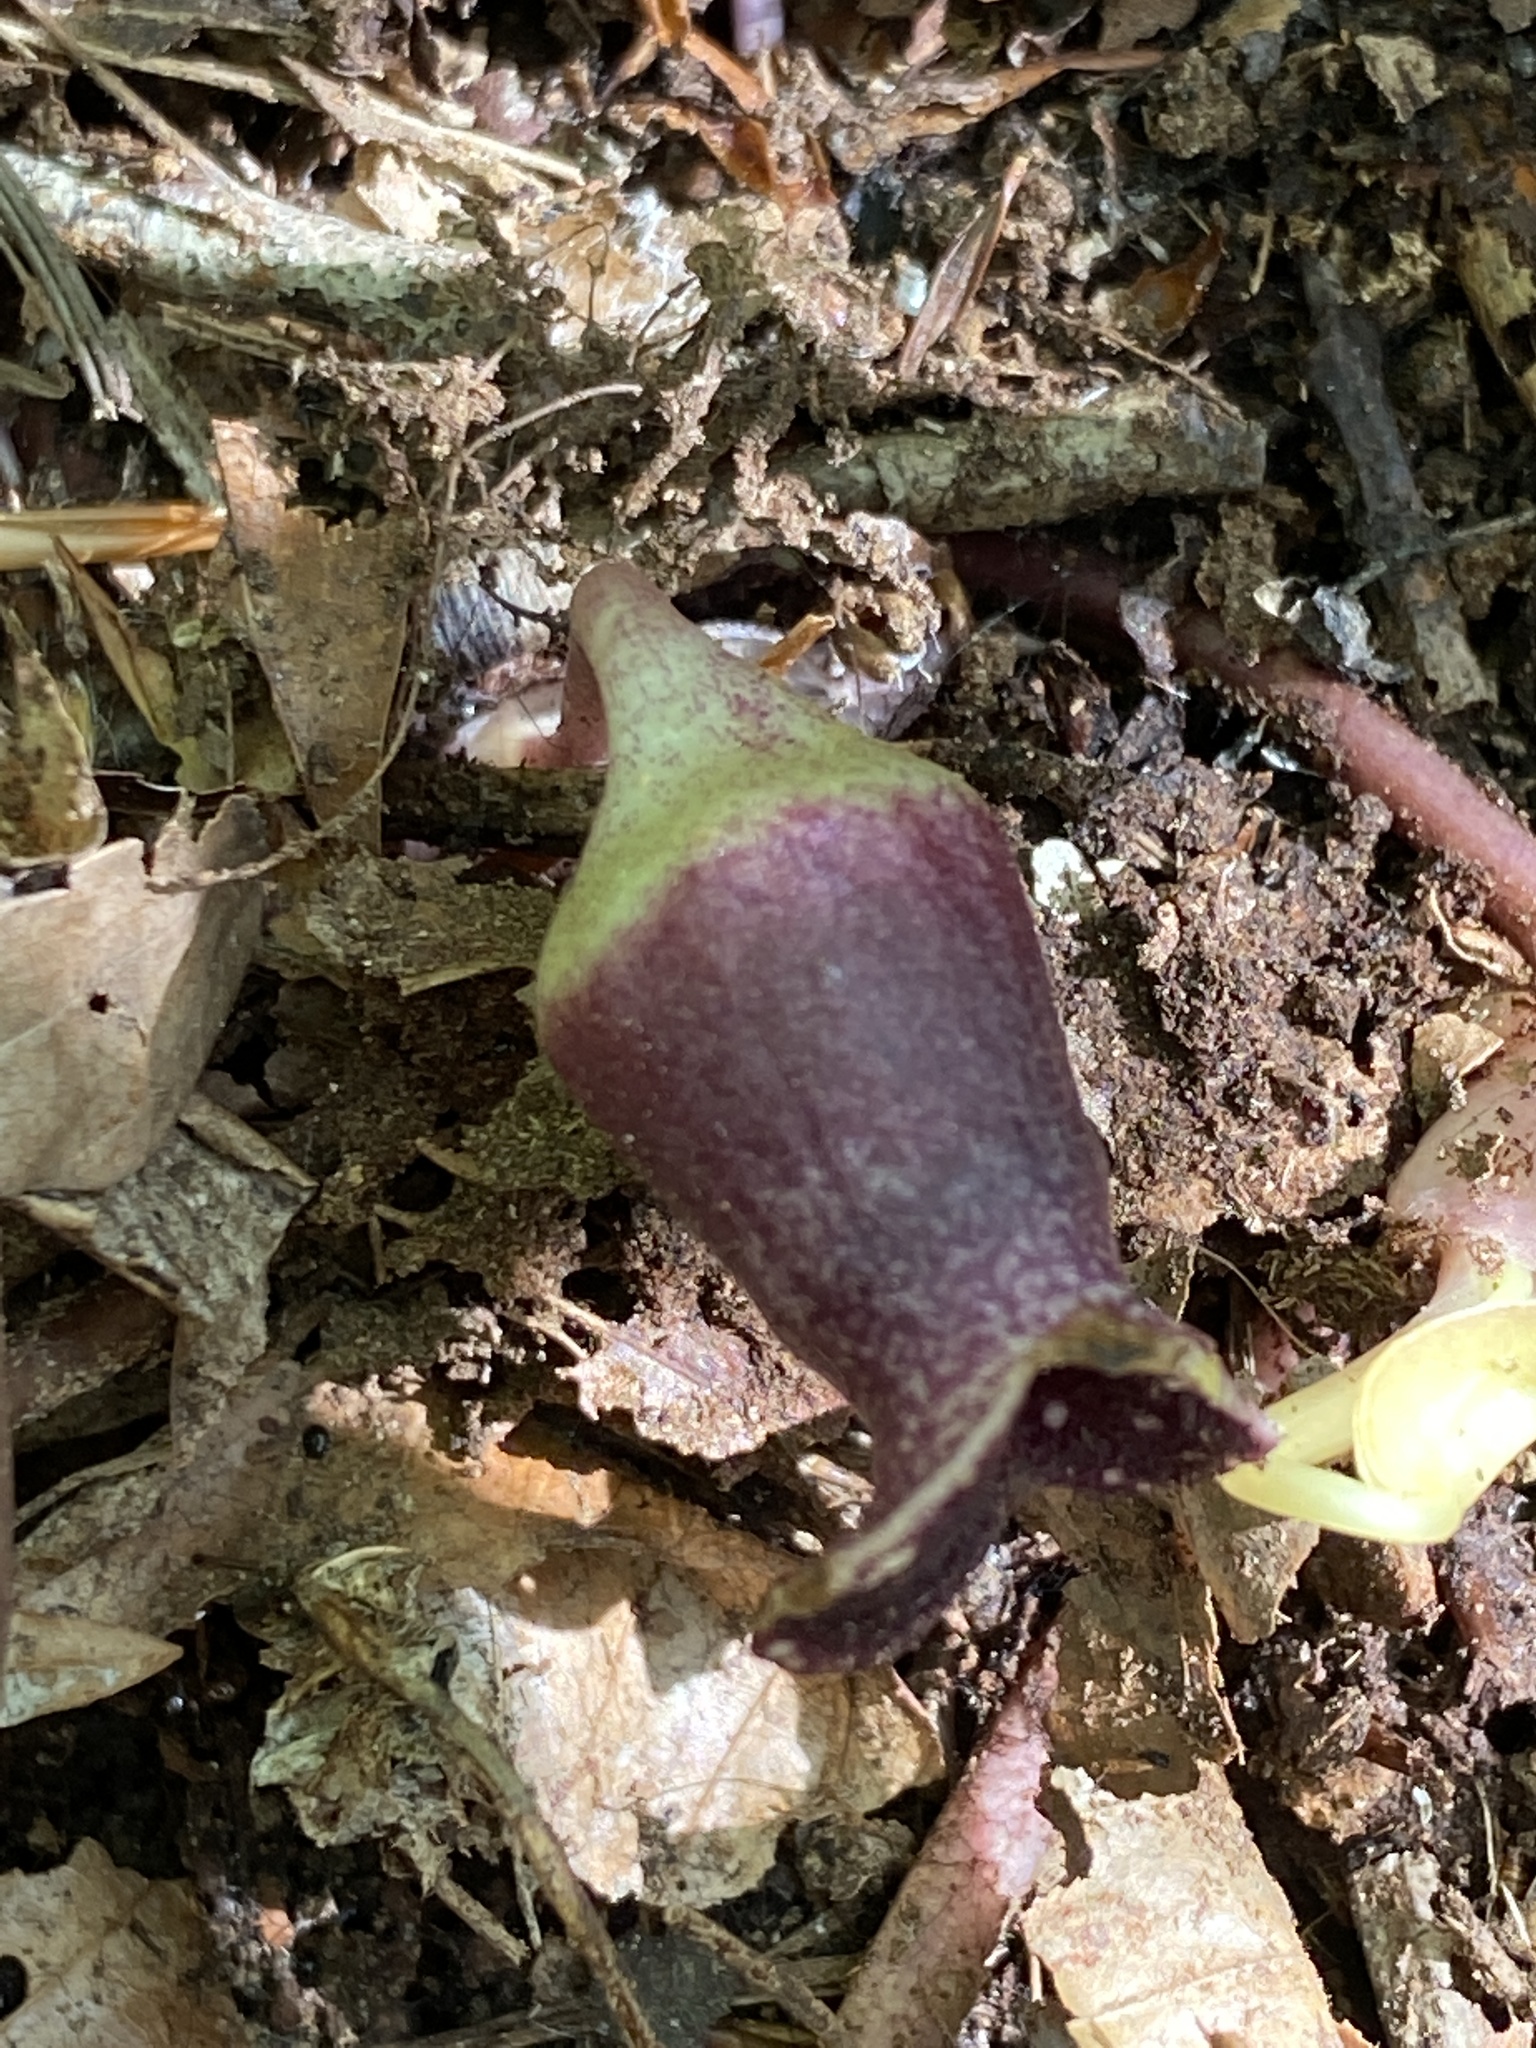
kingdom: Plantae
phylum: Tracheophyta
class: Magnoliopsida
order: Piperales
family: Aristolochiaceae
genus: Hexastylis
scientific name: Hexastylis shuttleworthii
